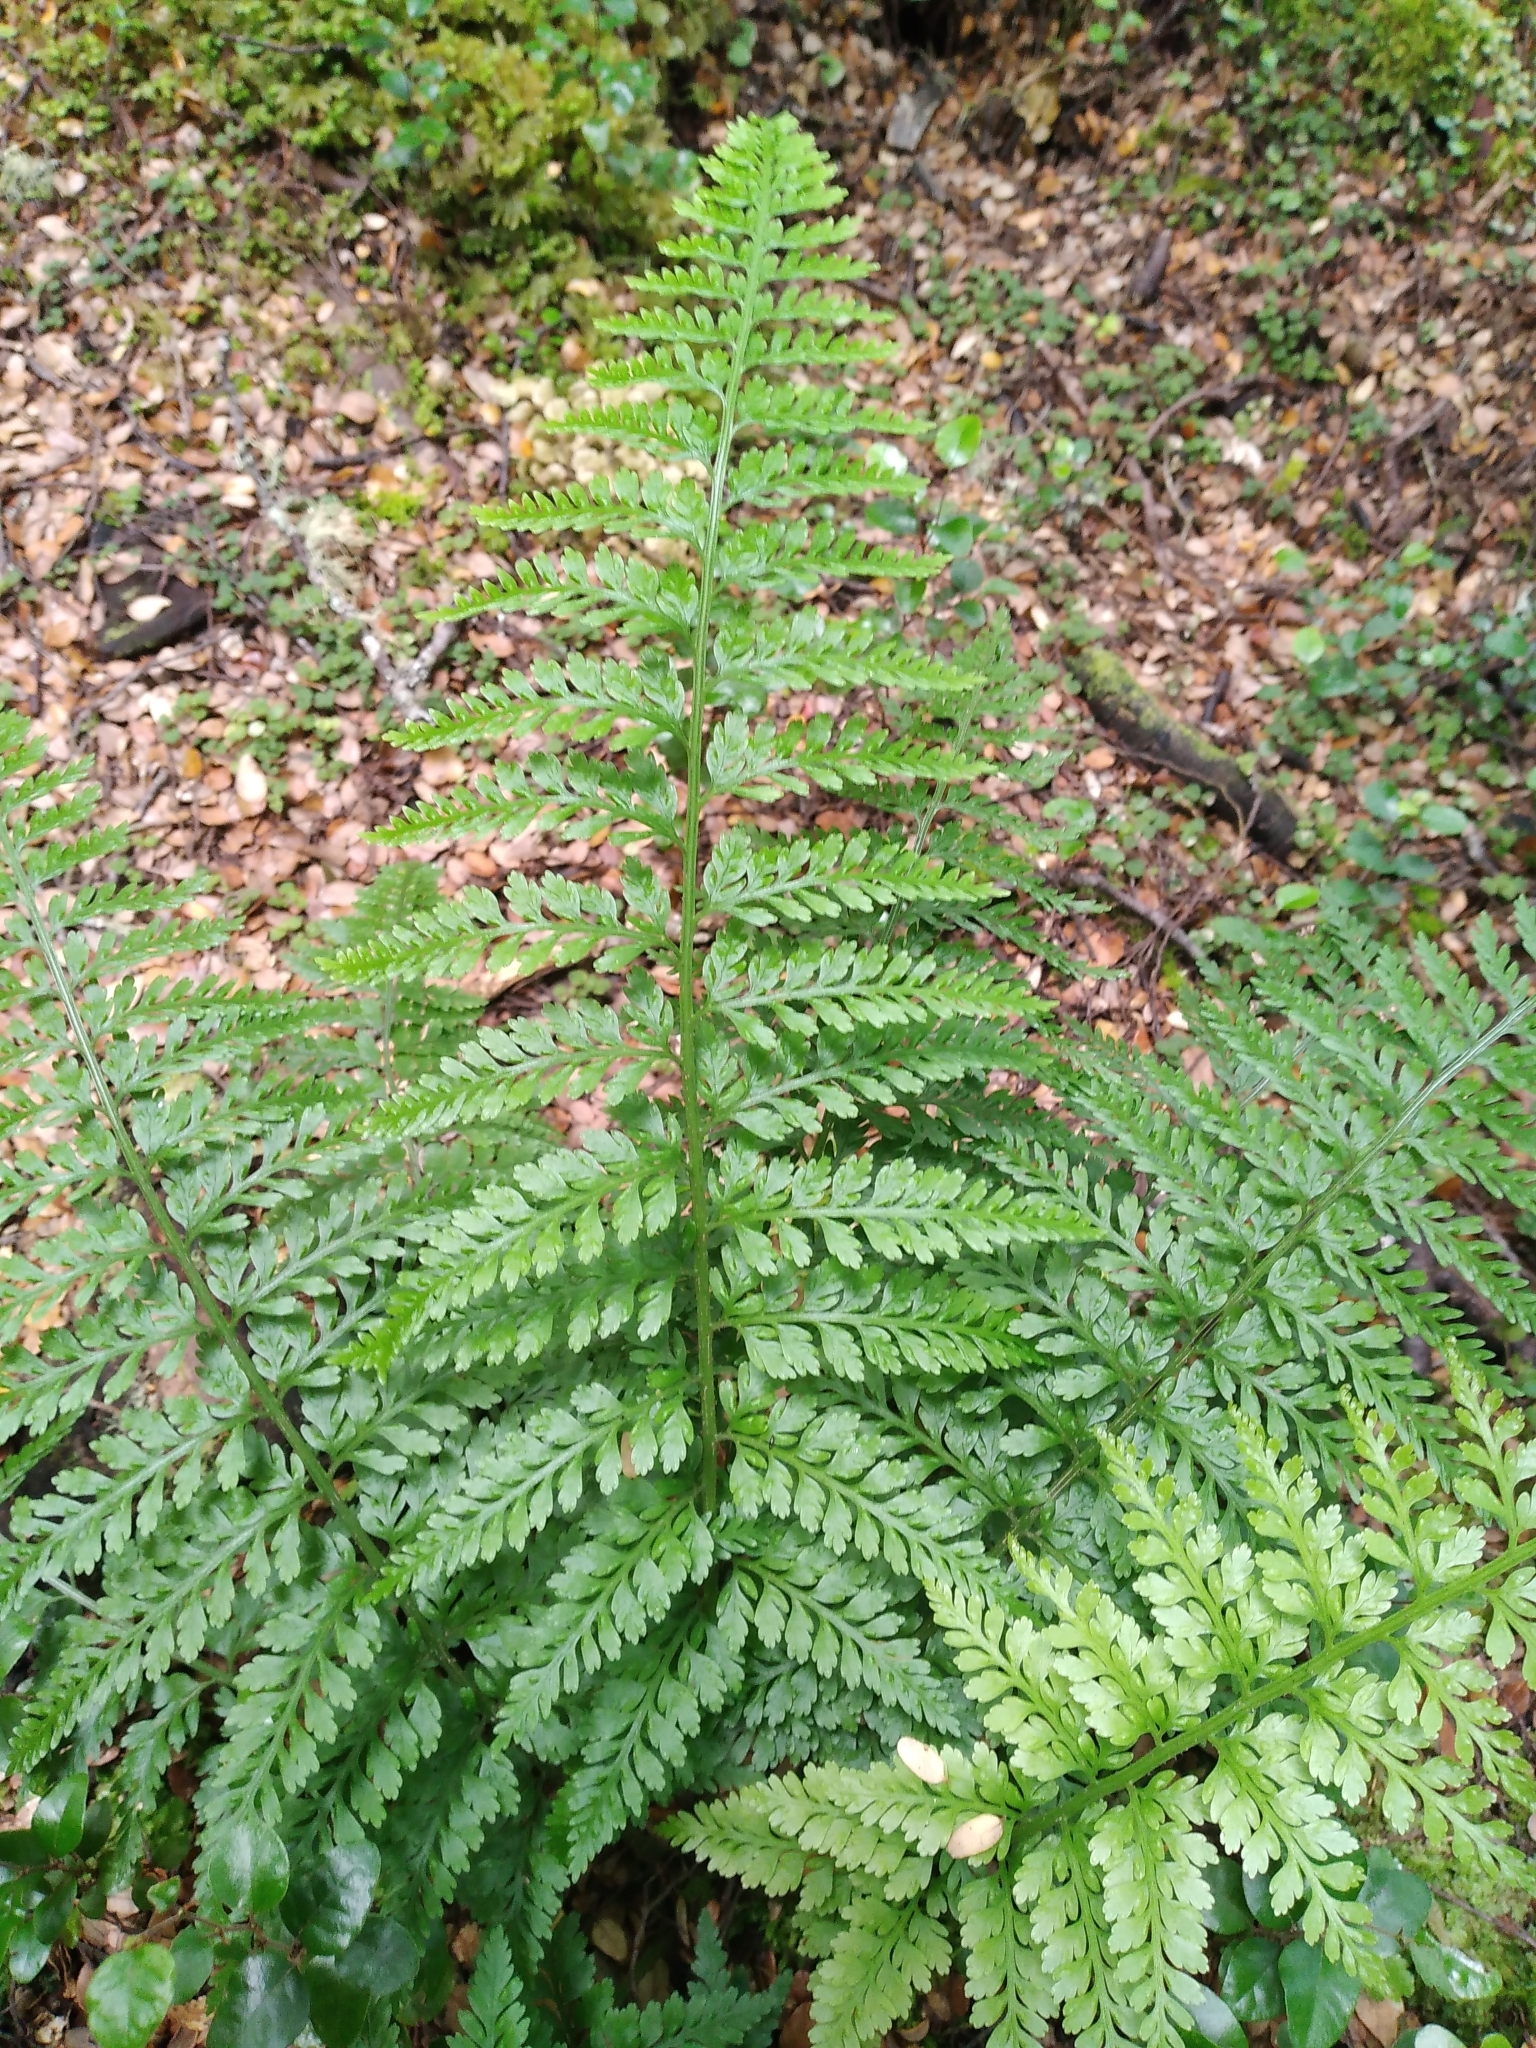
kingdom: Plantae
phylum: Tracheophyta
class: Polypodiopsida
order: Polypodiales
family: Aspleniaceae
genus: Asplenium
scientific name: Asplenium
